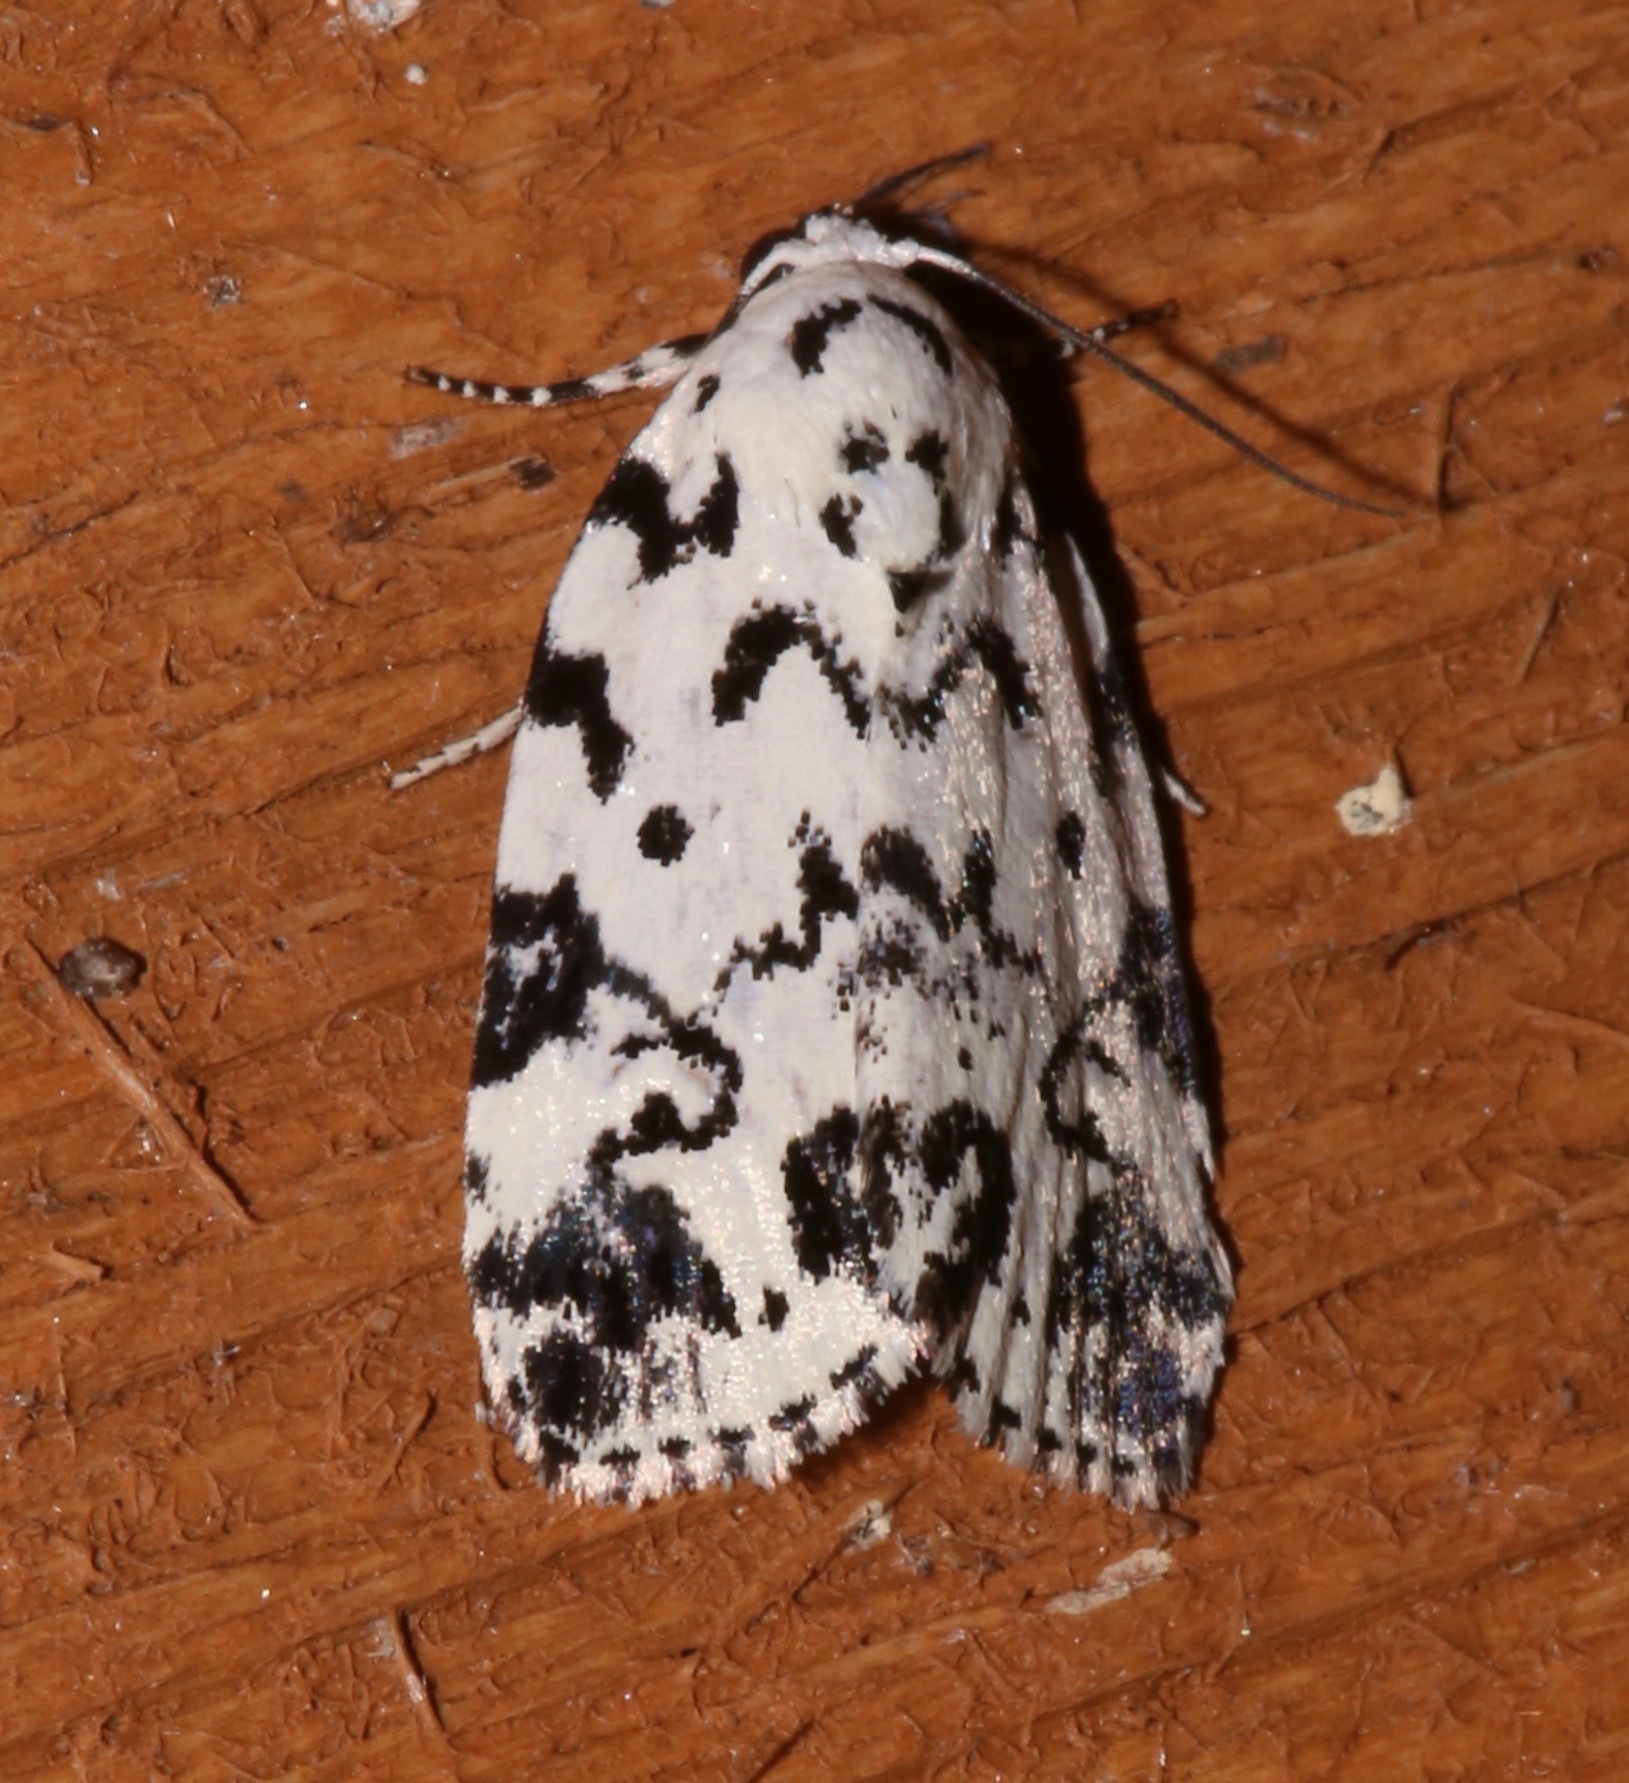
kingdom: Animalia
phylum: Arthropoda
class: Insecta
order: Lepidoptera
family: Noctuidae
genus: Polygrammate
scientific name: Polygrammate hebraeicum
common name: Hebrew moth
